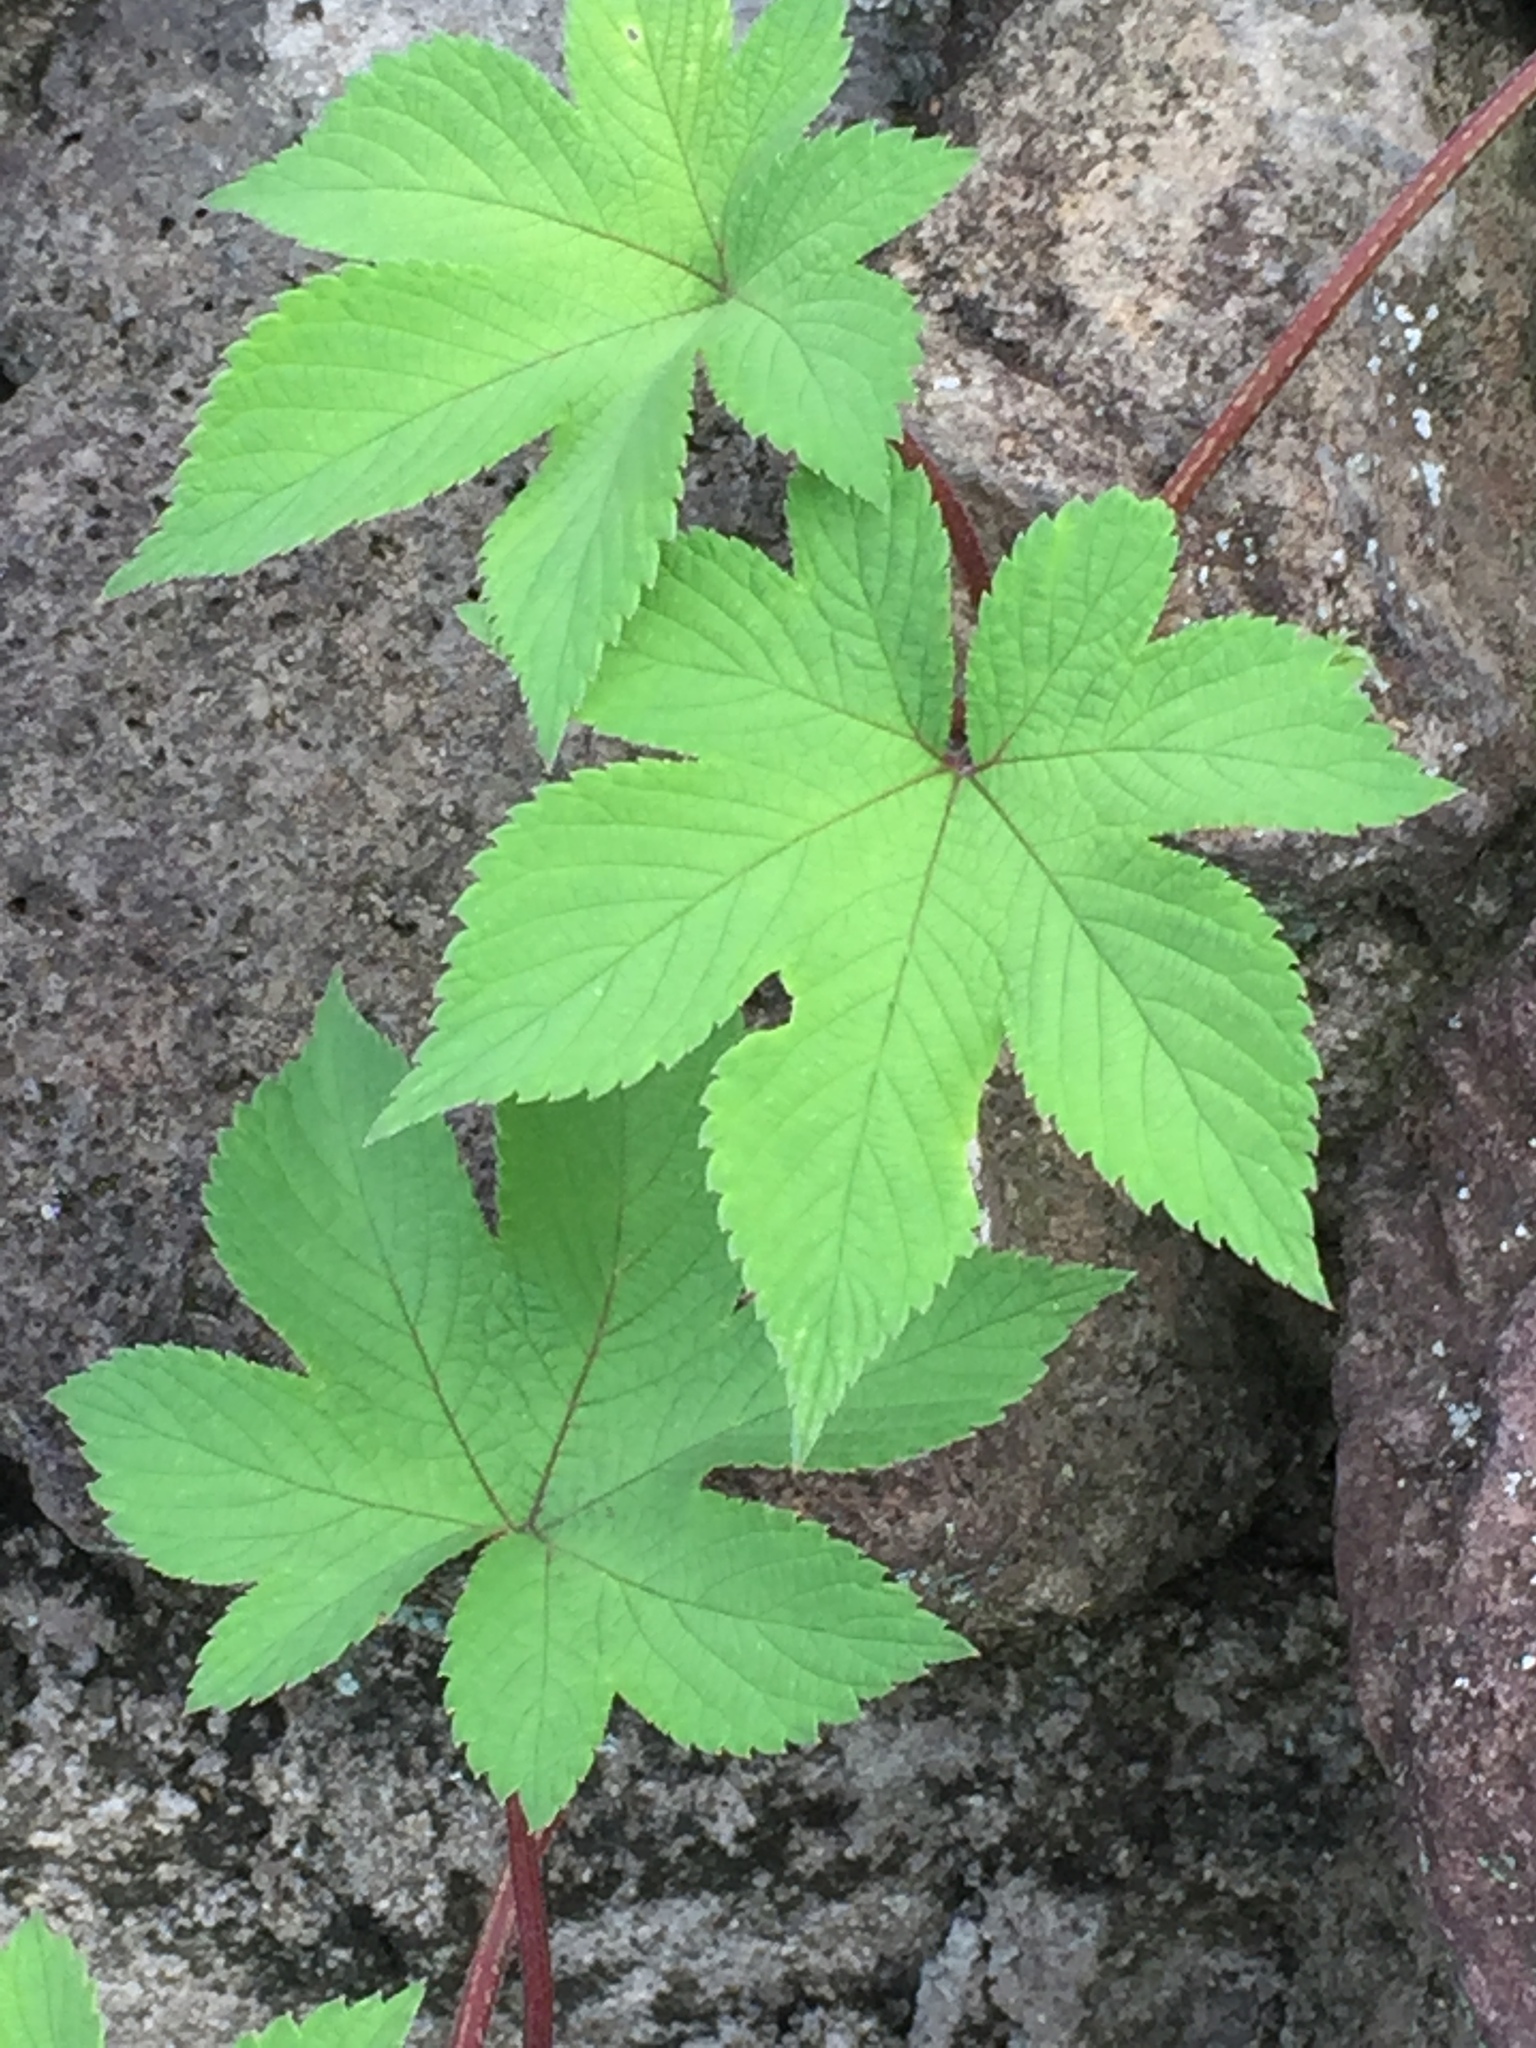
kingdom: Plantae
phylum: Tracheophyta
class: Magnoliopsida
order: Rosales
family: Cannabaceae
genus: Humulus
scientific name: Humulus scandens
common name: Japanese hop
